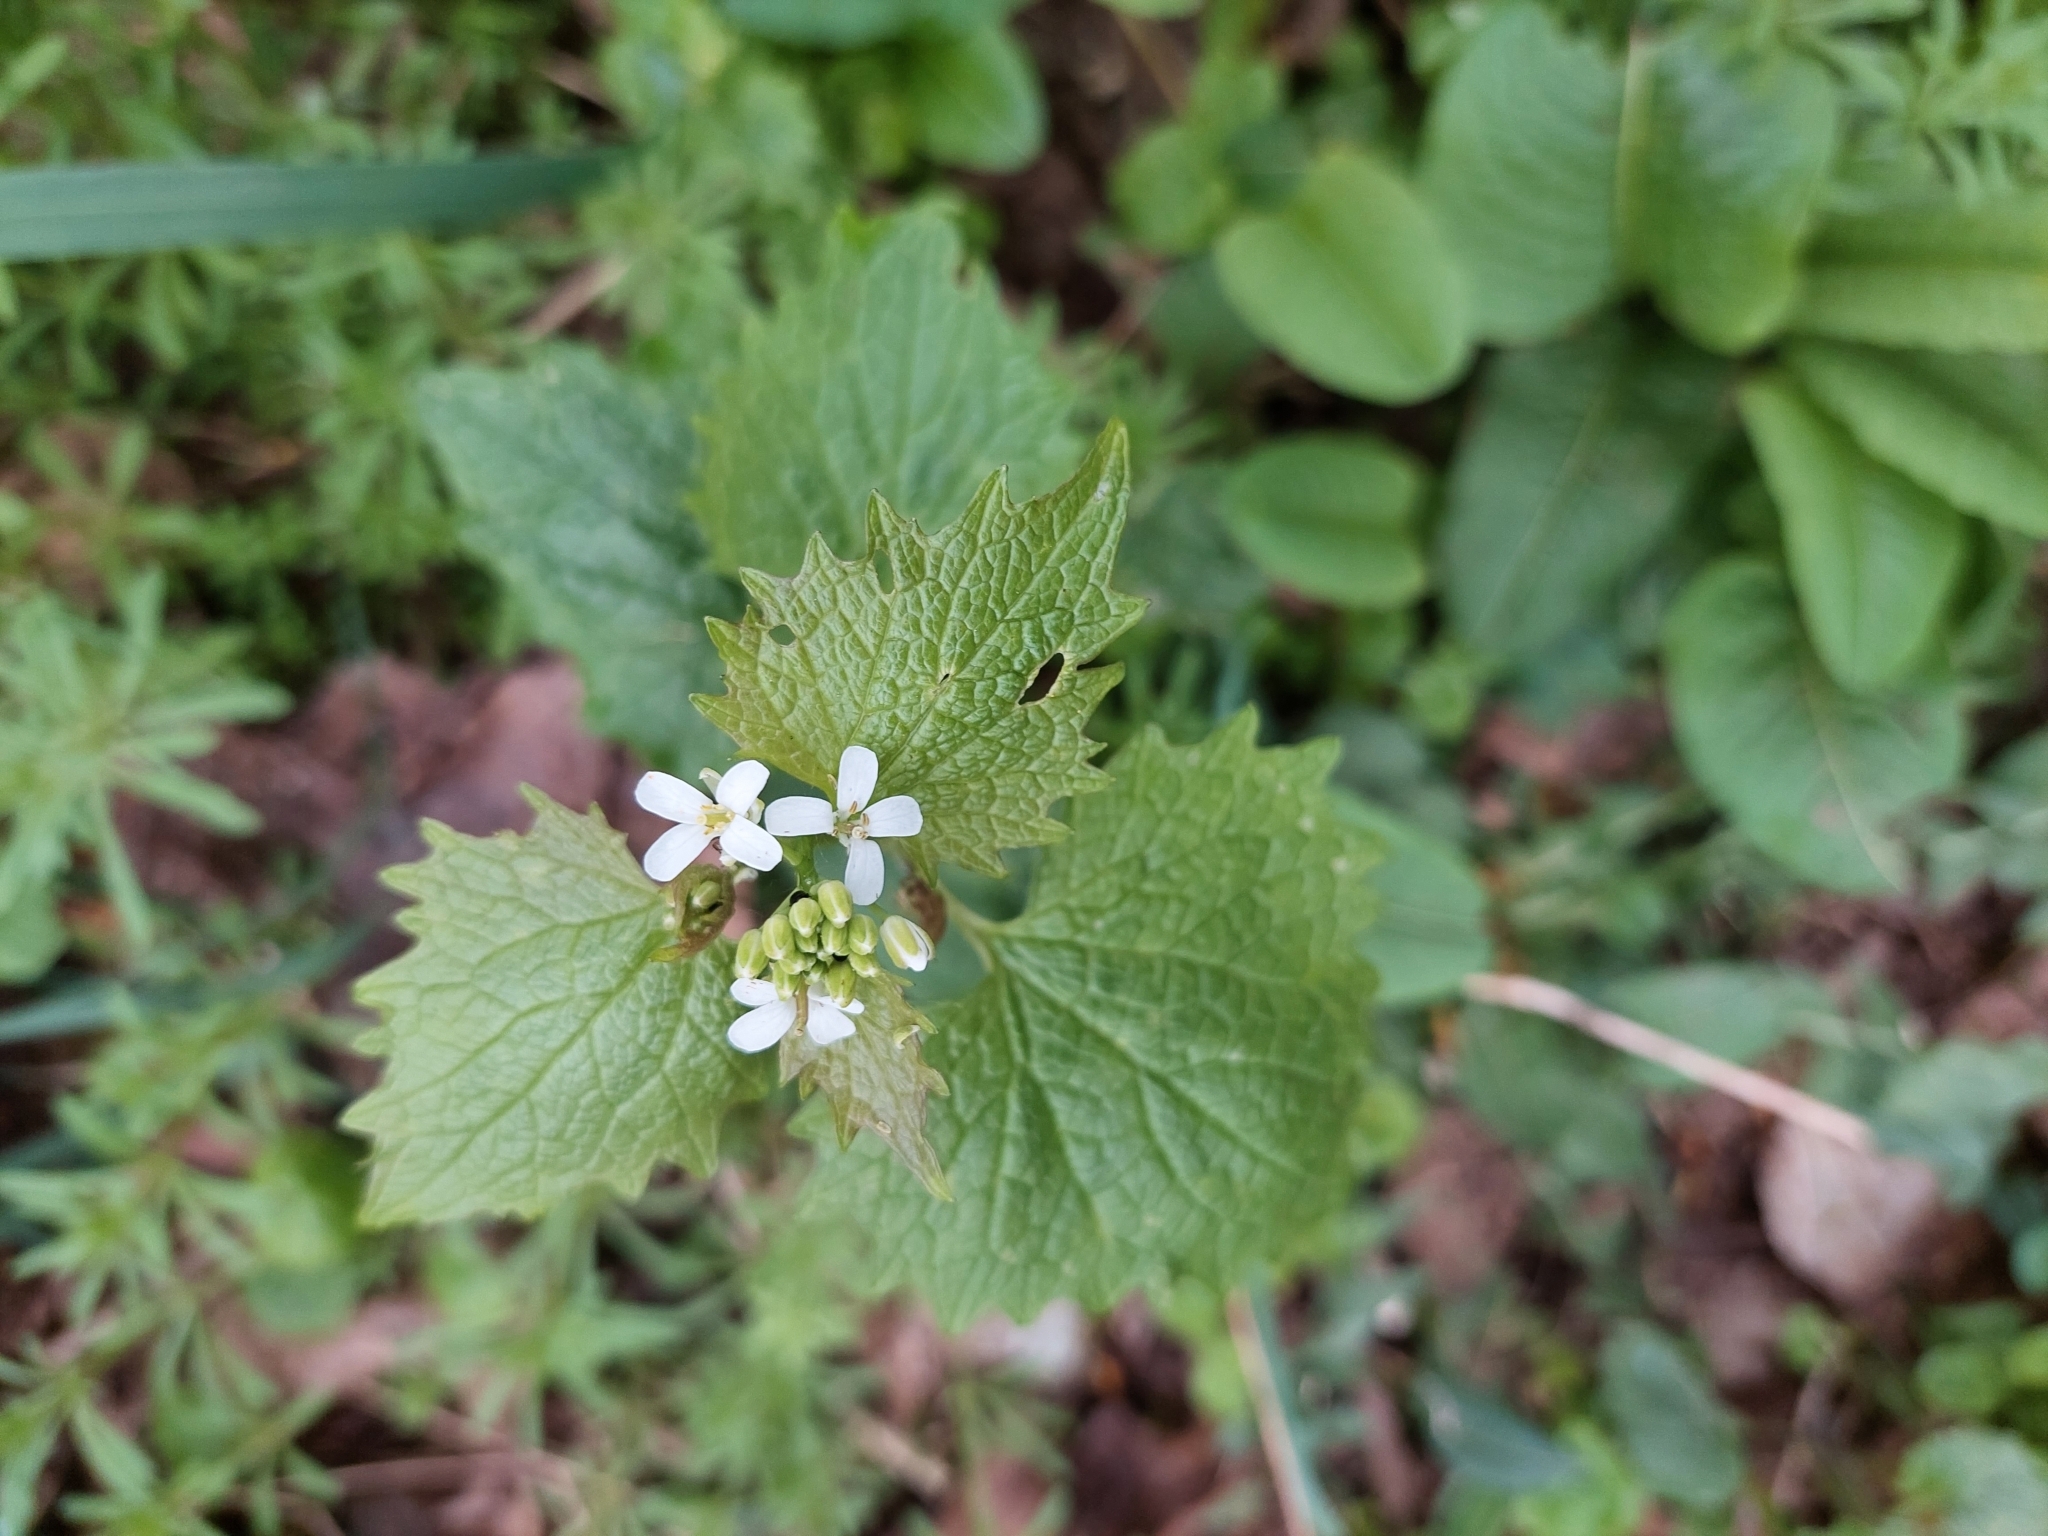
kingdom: Plantae
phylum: Tracheophyta
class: Magnoliopsida
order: Brassicales
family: Brassicaceae
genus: Alliaria
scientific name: Alliaria petiolata
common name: Garlic mustard
